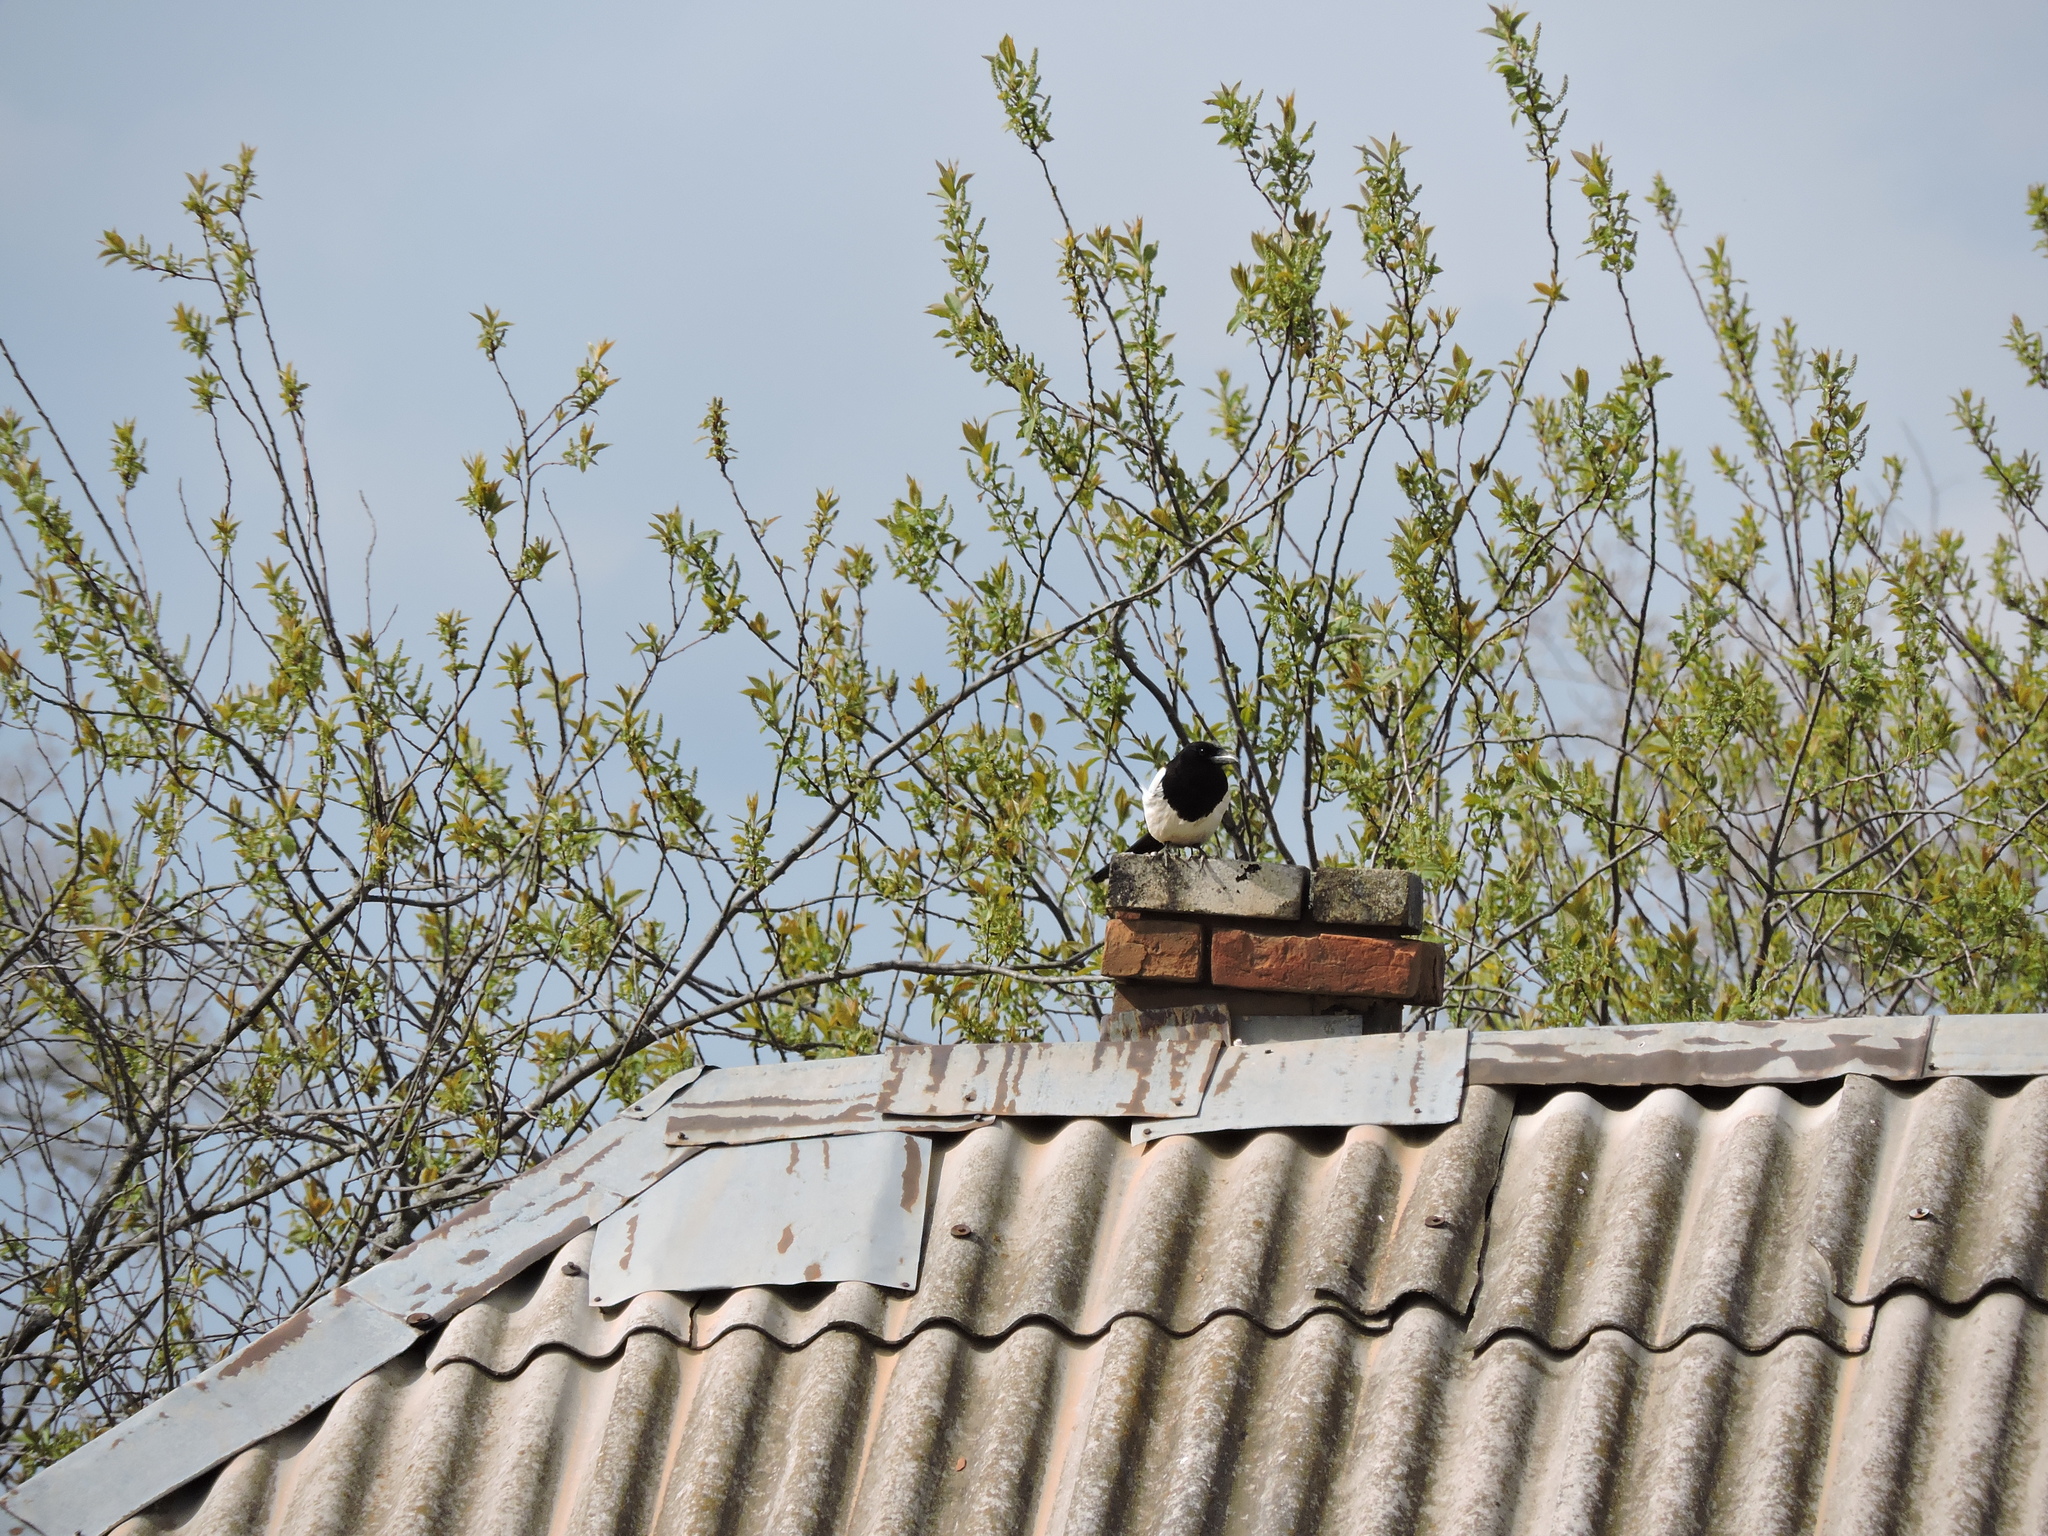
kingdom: Animalia
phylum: Chordata
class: Aves
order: Passeriformes
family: Corvidae
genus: Pica
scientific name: Pica pica
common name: Eurasian magpie
